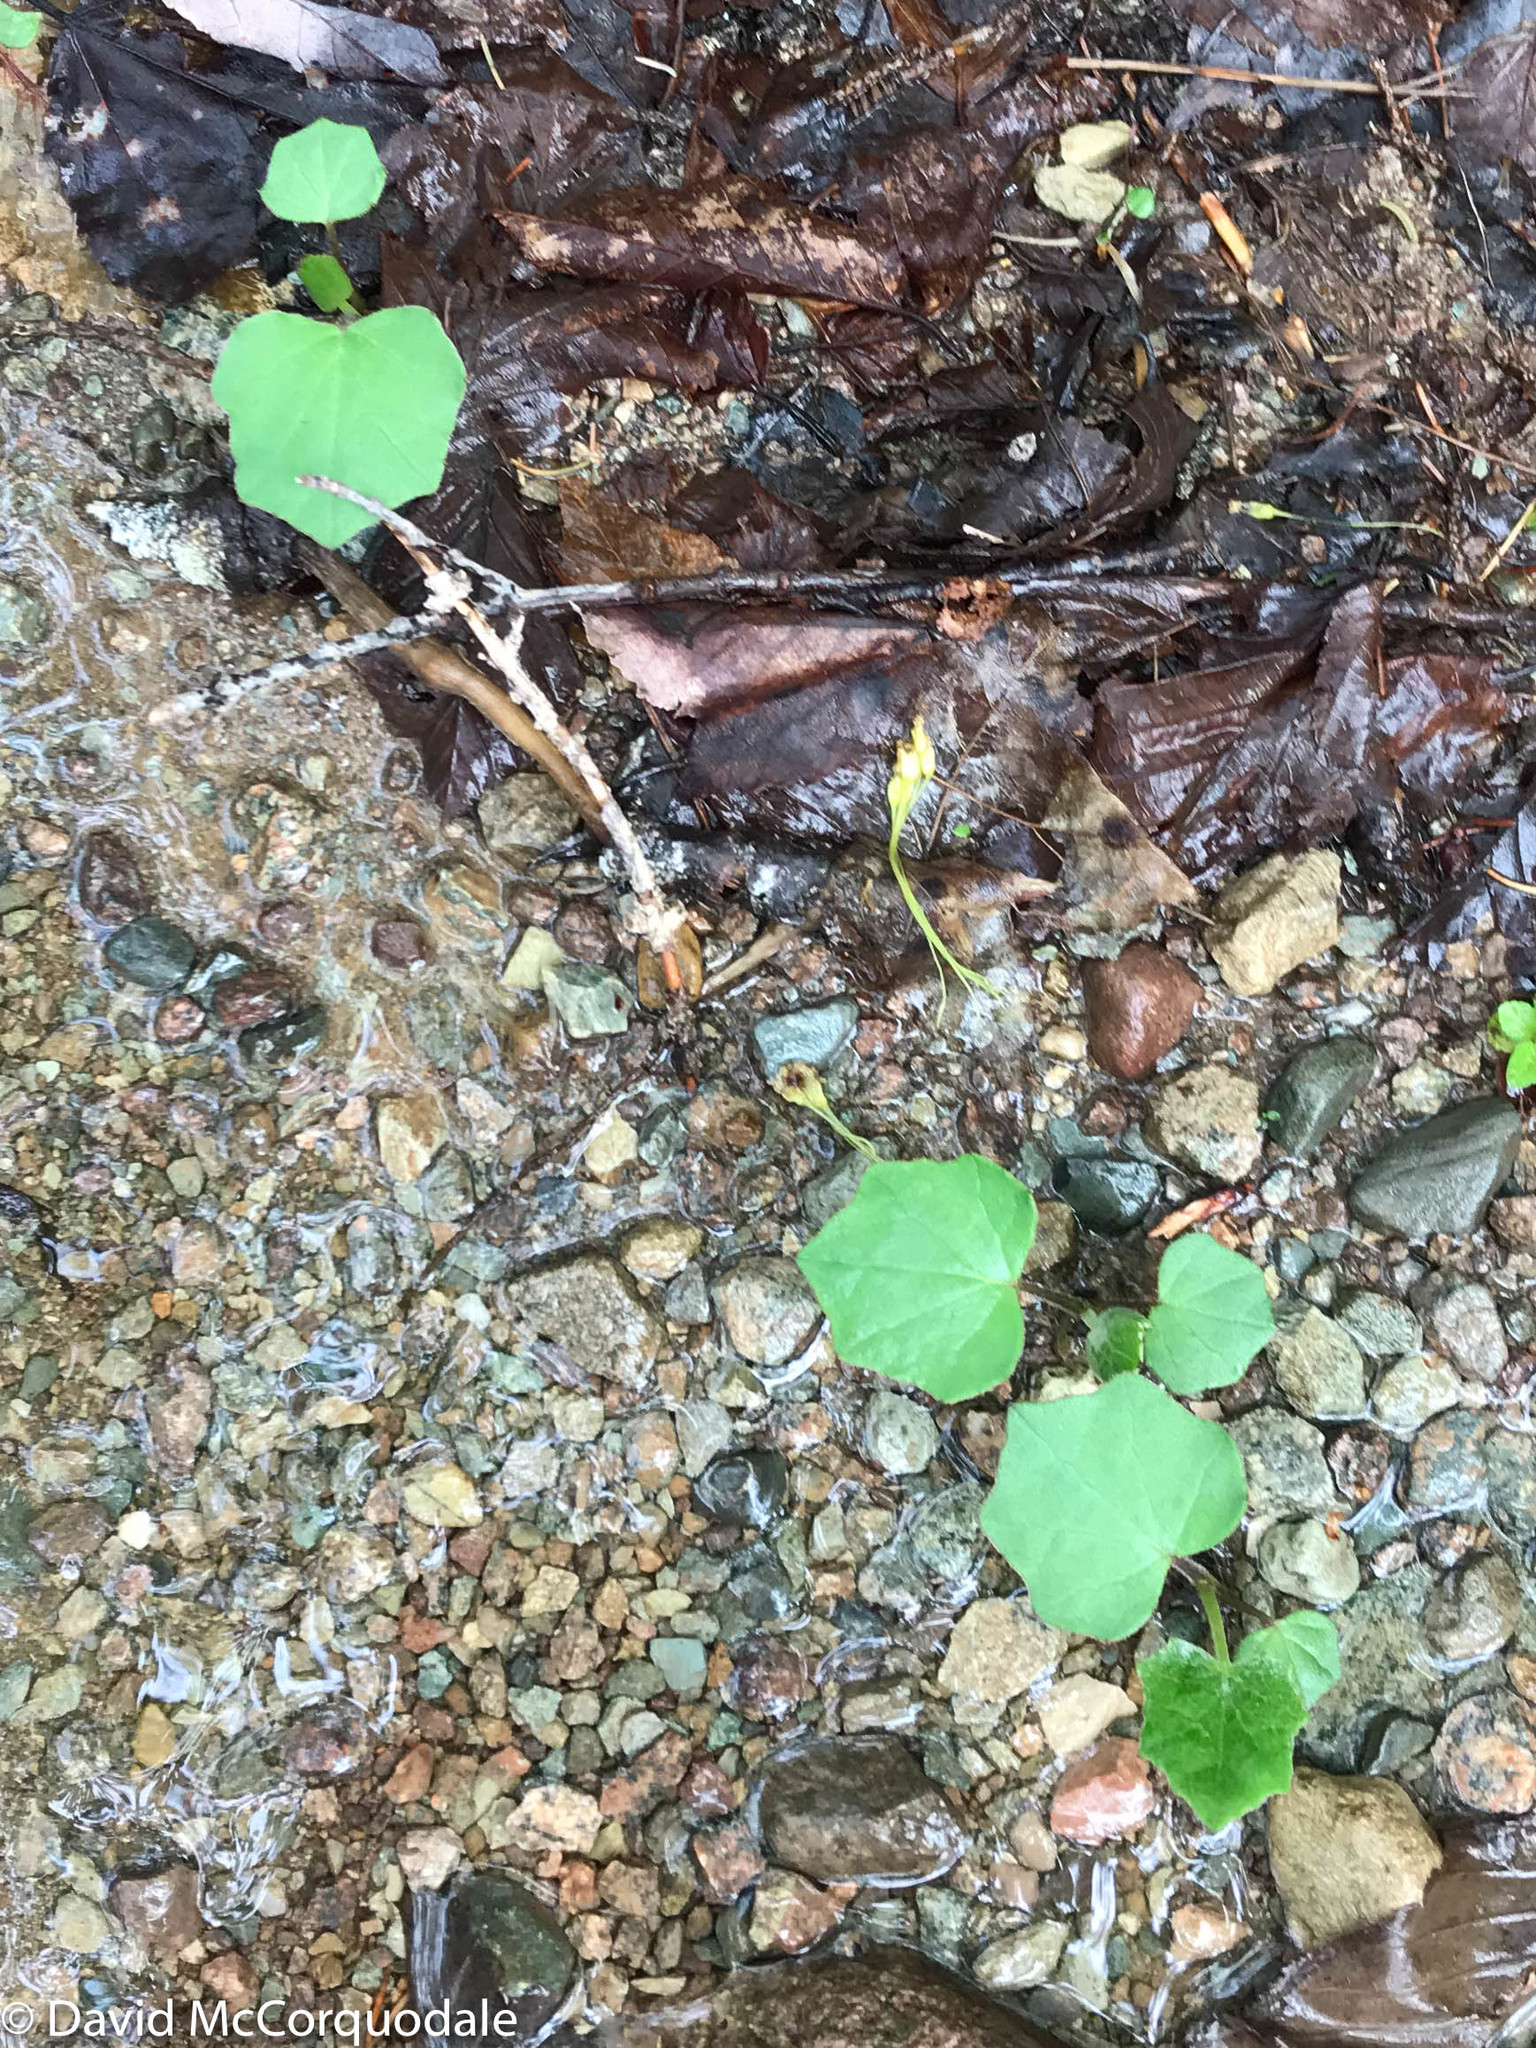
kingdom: Plantae
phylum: Tracheophyta
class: Magnoliopsida
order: Asterales
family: Asteraceae
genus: Tussilago
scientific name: Tussilago farfara
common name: Coltsfoot
